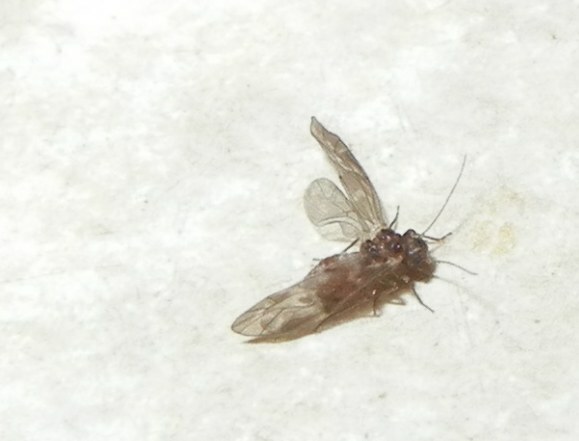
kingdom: Animalia
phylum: Arthropoda
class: Insecta
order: Psocodea
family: Peripsocidae
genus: Peripsocus
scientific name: Peripsocus subfasciatus
